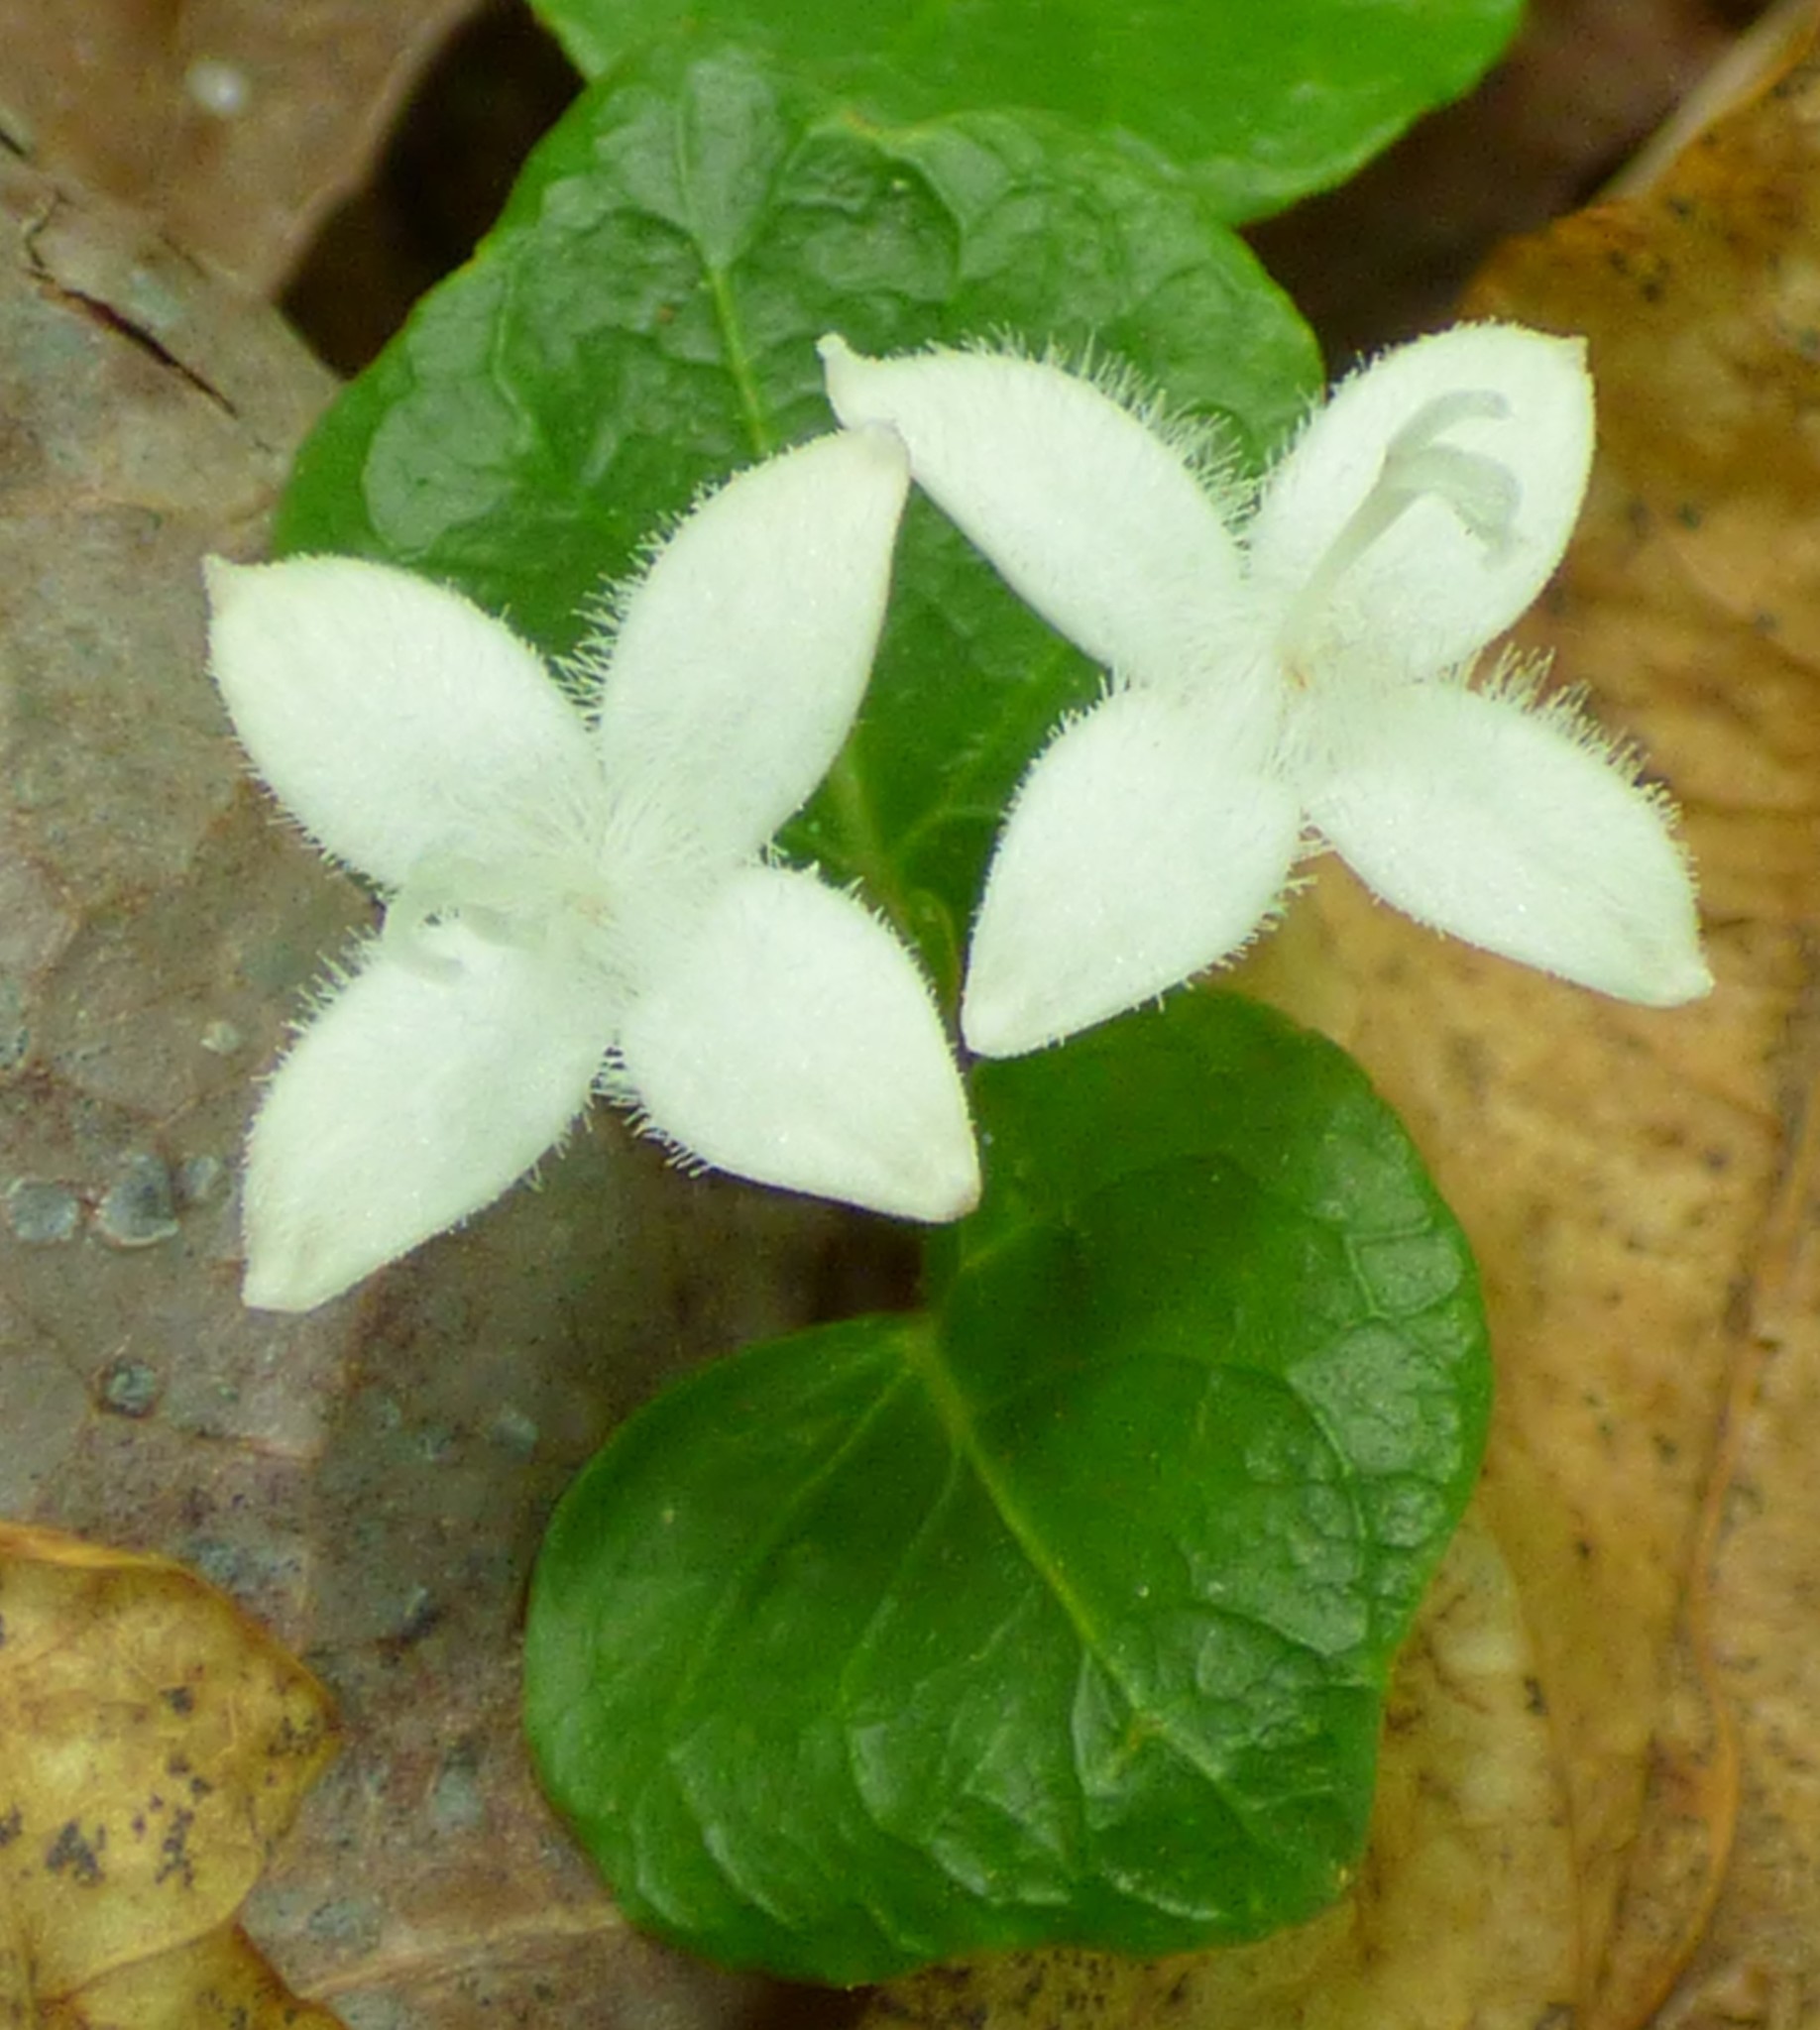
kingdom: Plantae
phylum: Tracheophyta
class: Magnoliopsida
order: Gentianales
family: Rubiaceae
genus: Mitchella
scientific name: Mitchella repens
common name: Partridge-berry
